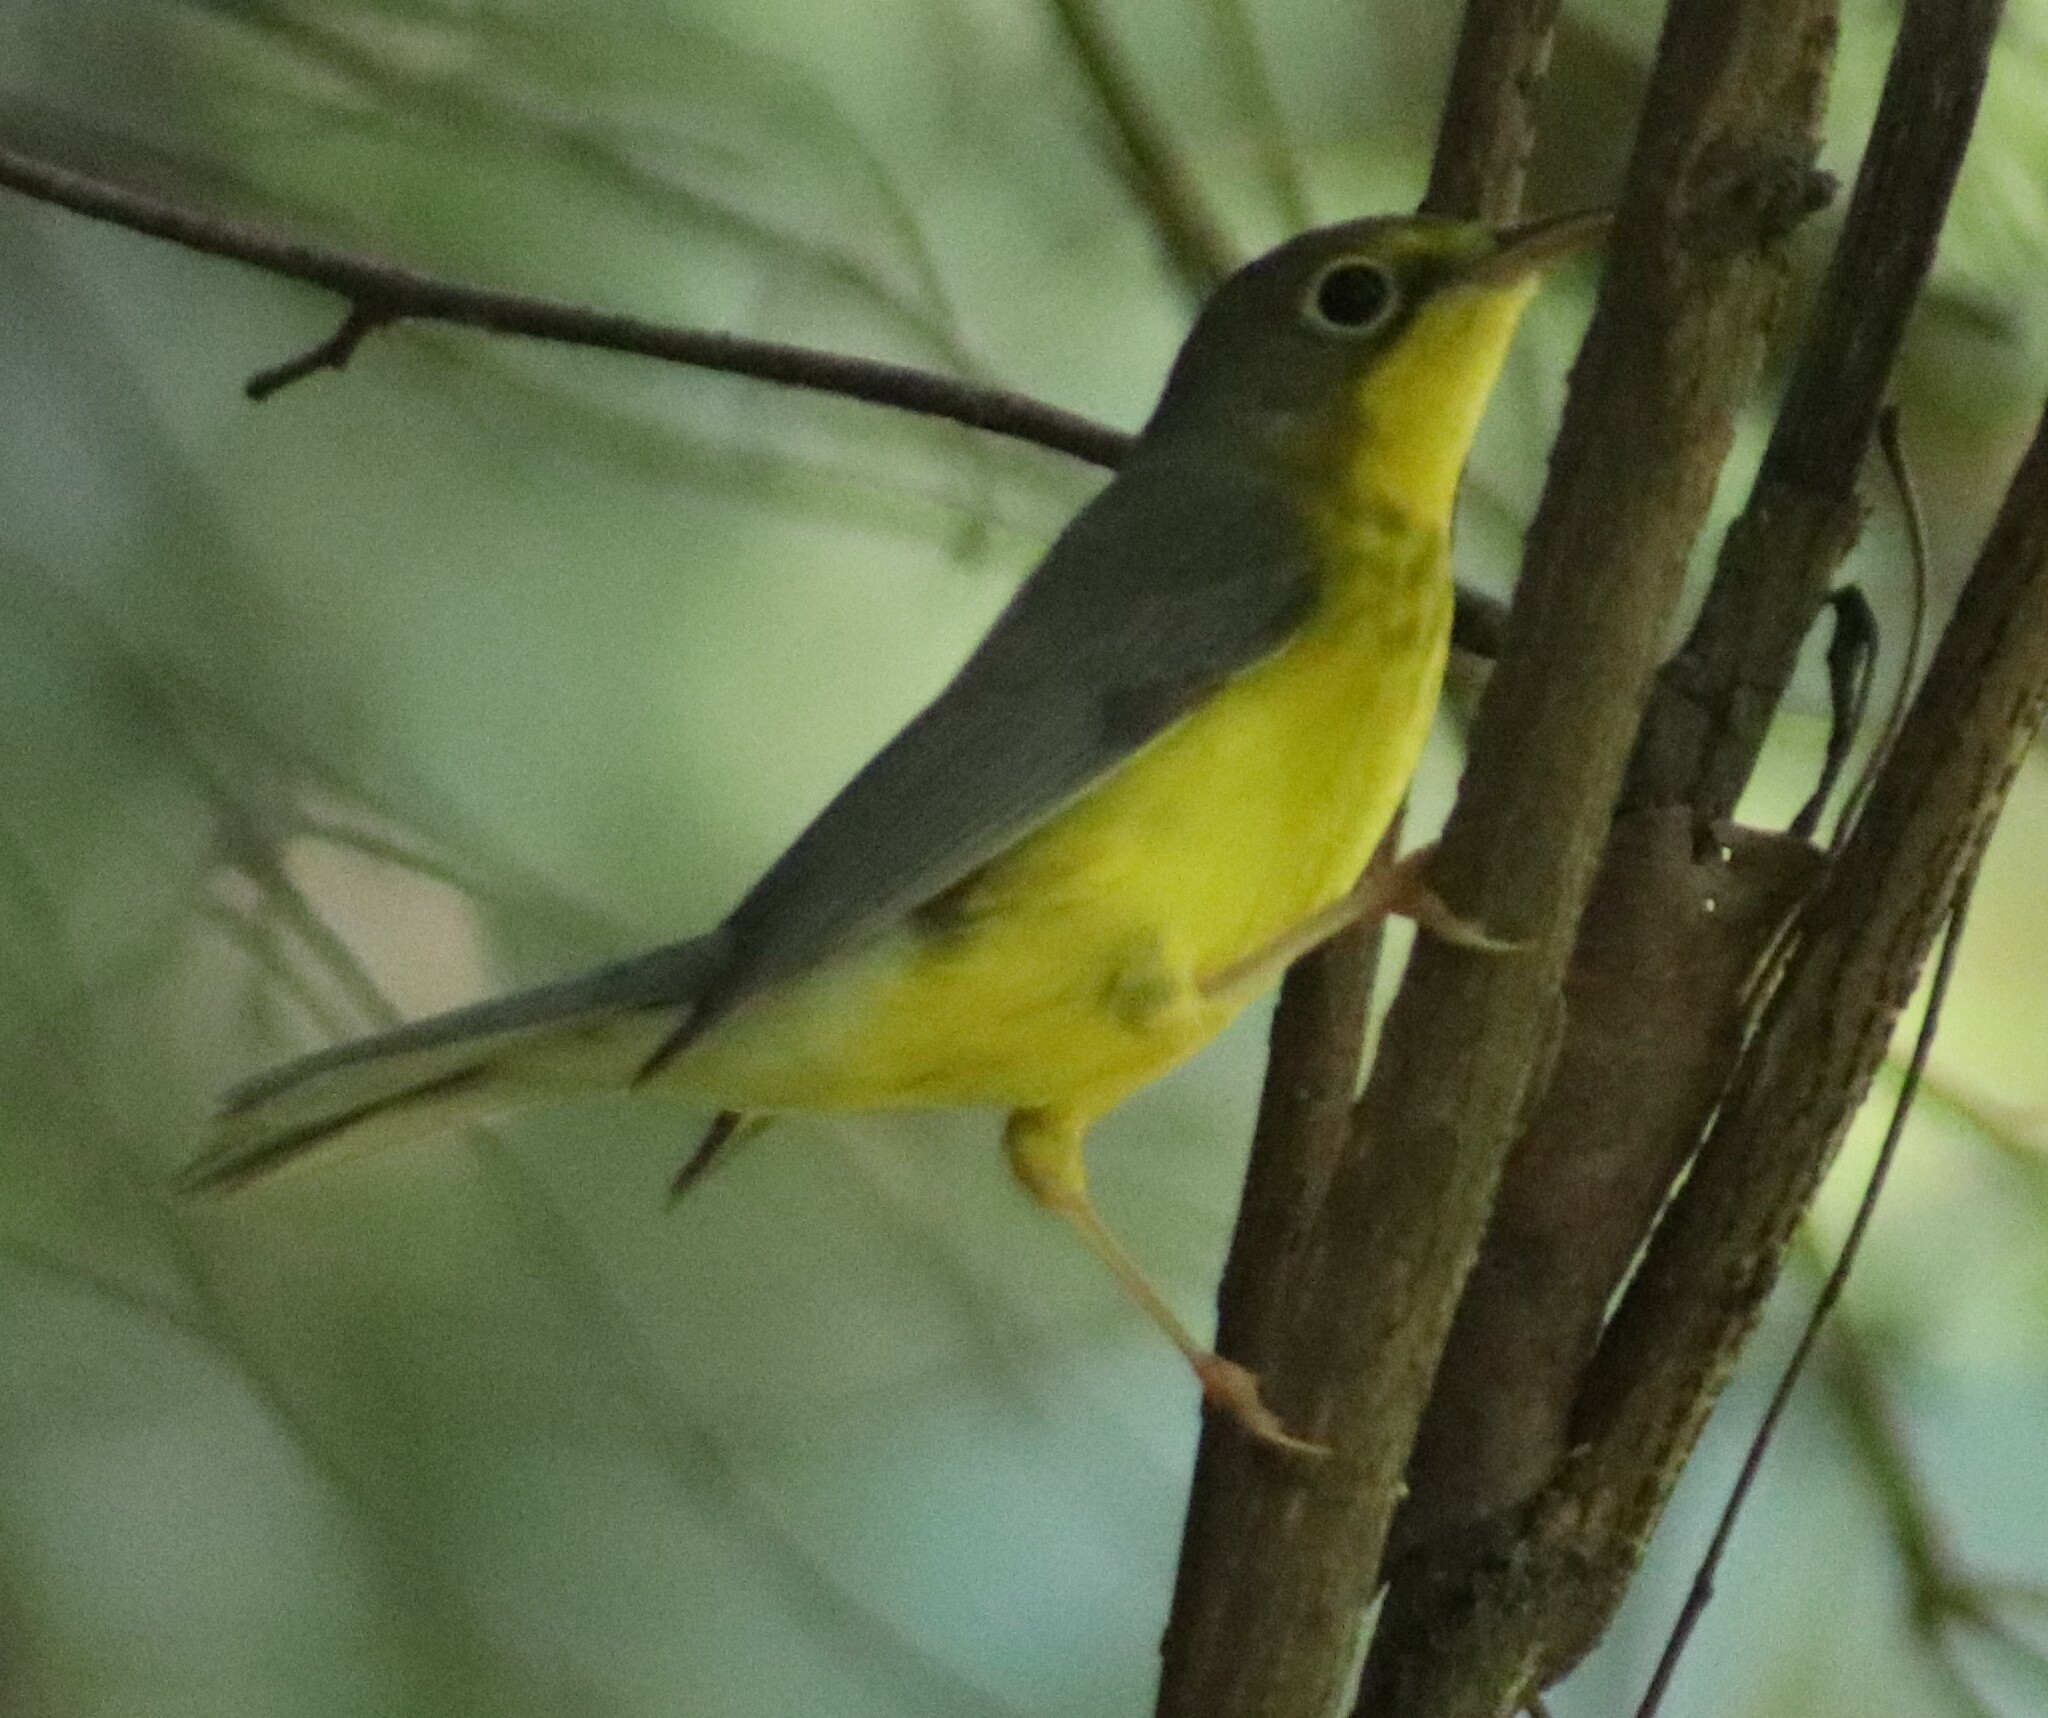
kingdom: Animalia
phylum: Chordata
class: Aves
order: Passeriformes
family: Parulidae
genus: Cardellina
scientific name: Cardellina canadensis
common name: Canada warbler
